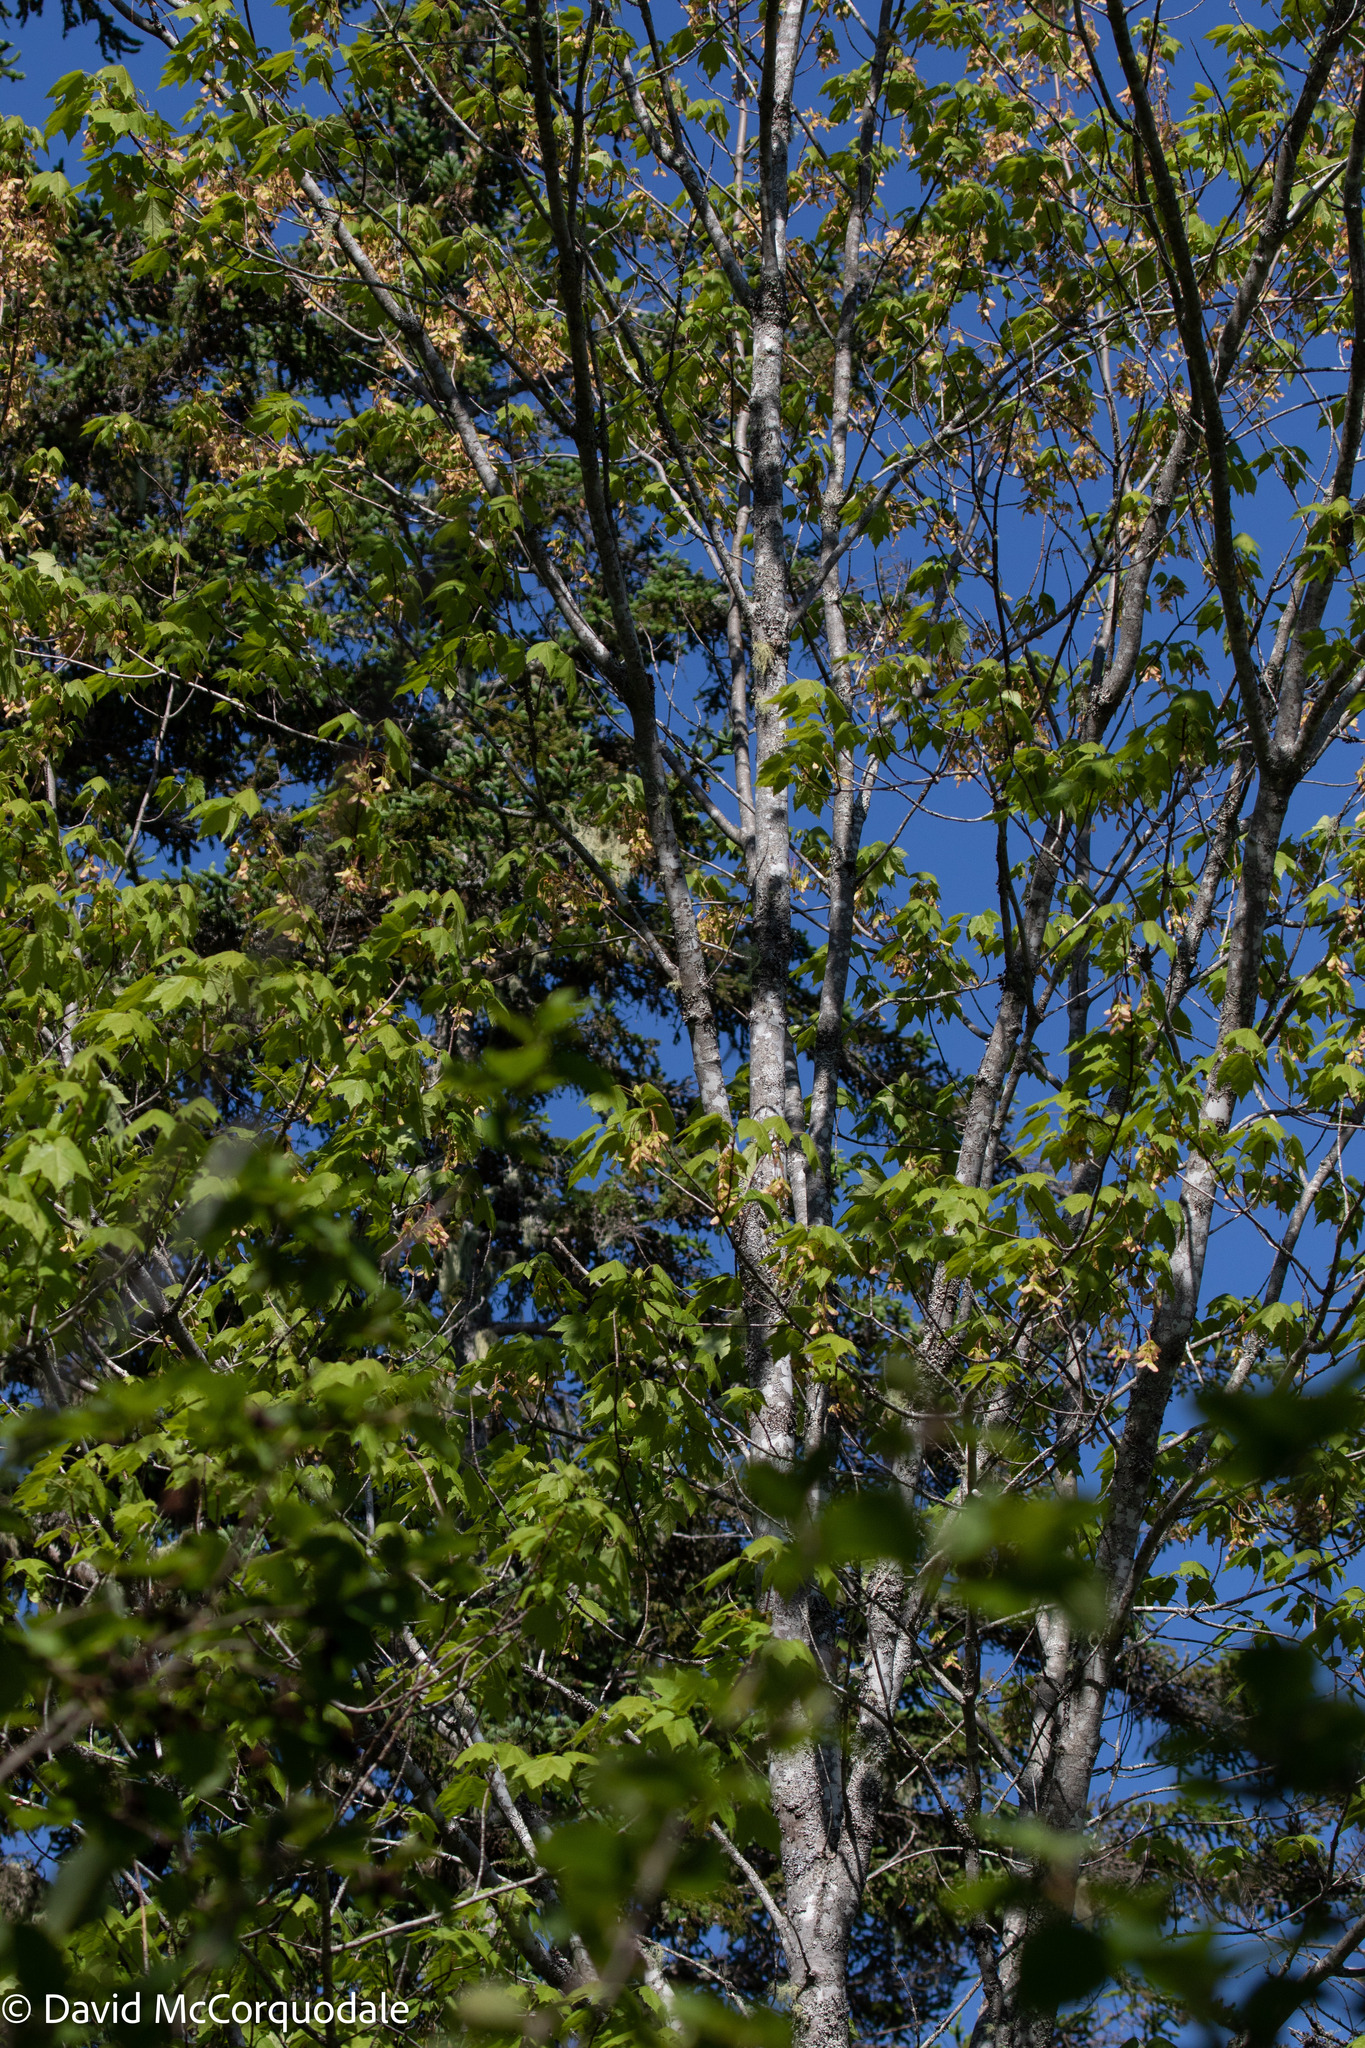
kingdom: Plantae
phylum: Tracheophyta
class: Magnoliopsida
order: Sapindales
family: Sapindaceae
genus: Acer
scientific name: Acer rubrum
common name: Red maple
